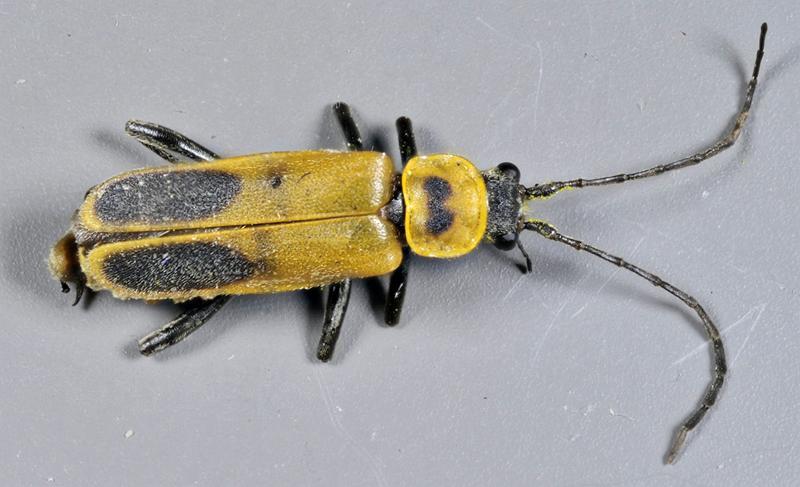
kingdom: Animalia
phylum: Arthropoda
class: Insecta
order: Coleoptera
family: Cantharidae
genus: Chauliognathus
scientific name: Chauliognathus pensylvanicus
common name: Goldenrod soldier beetle
